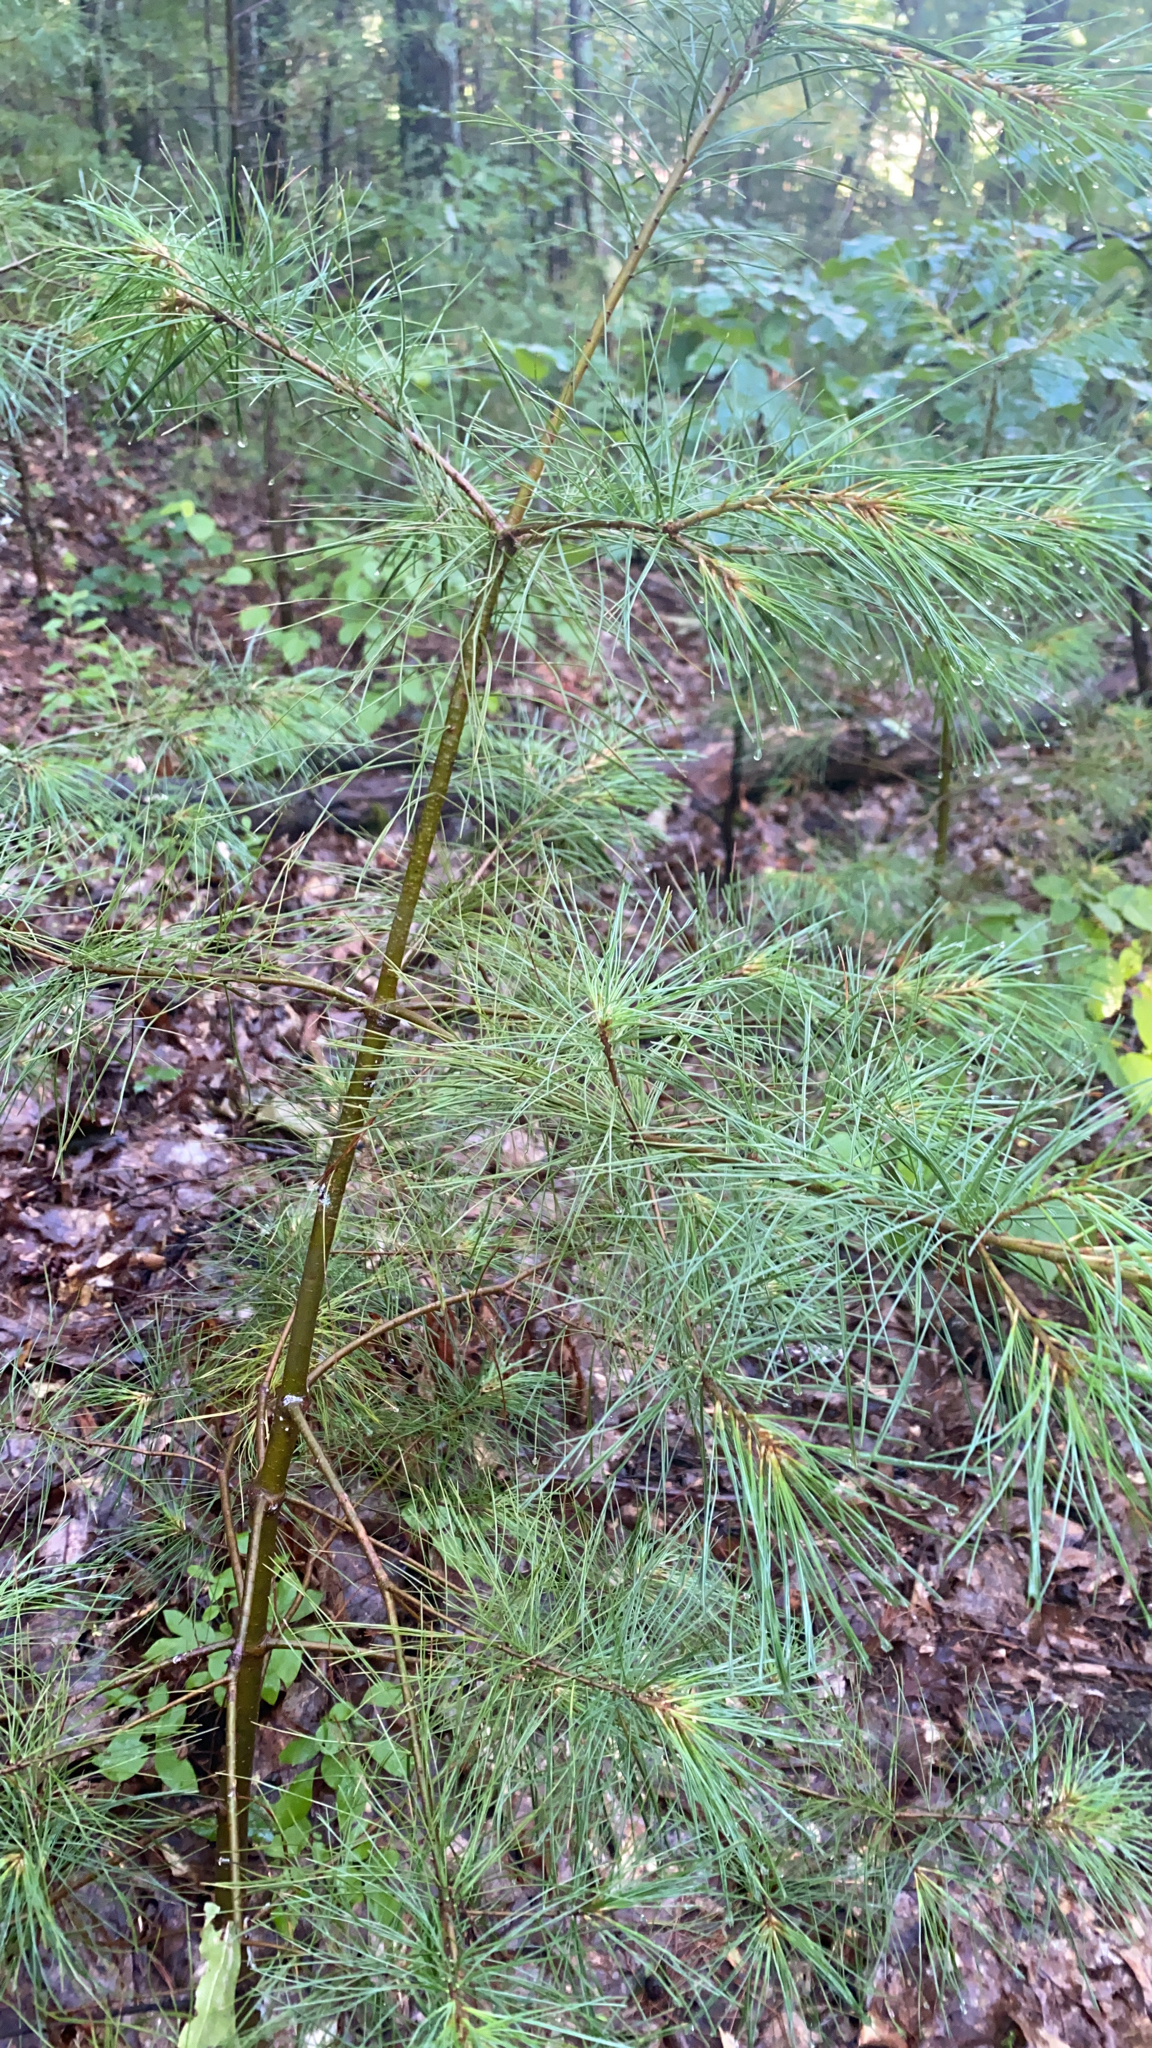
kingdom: Plantae
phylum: Tracheophyta
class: Pinopsida
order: Pinales
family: Pinaceae
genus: Pinus
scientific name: Pinus strobus
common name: Weymouth pine
